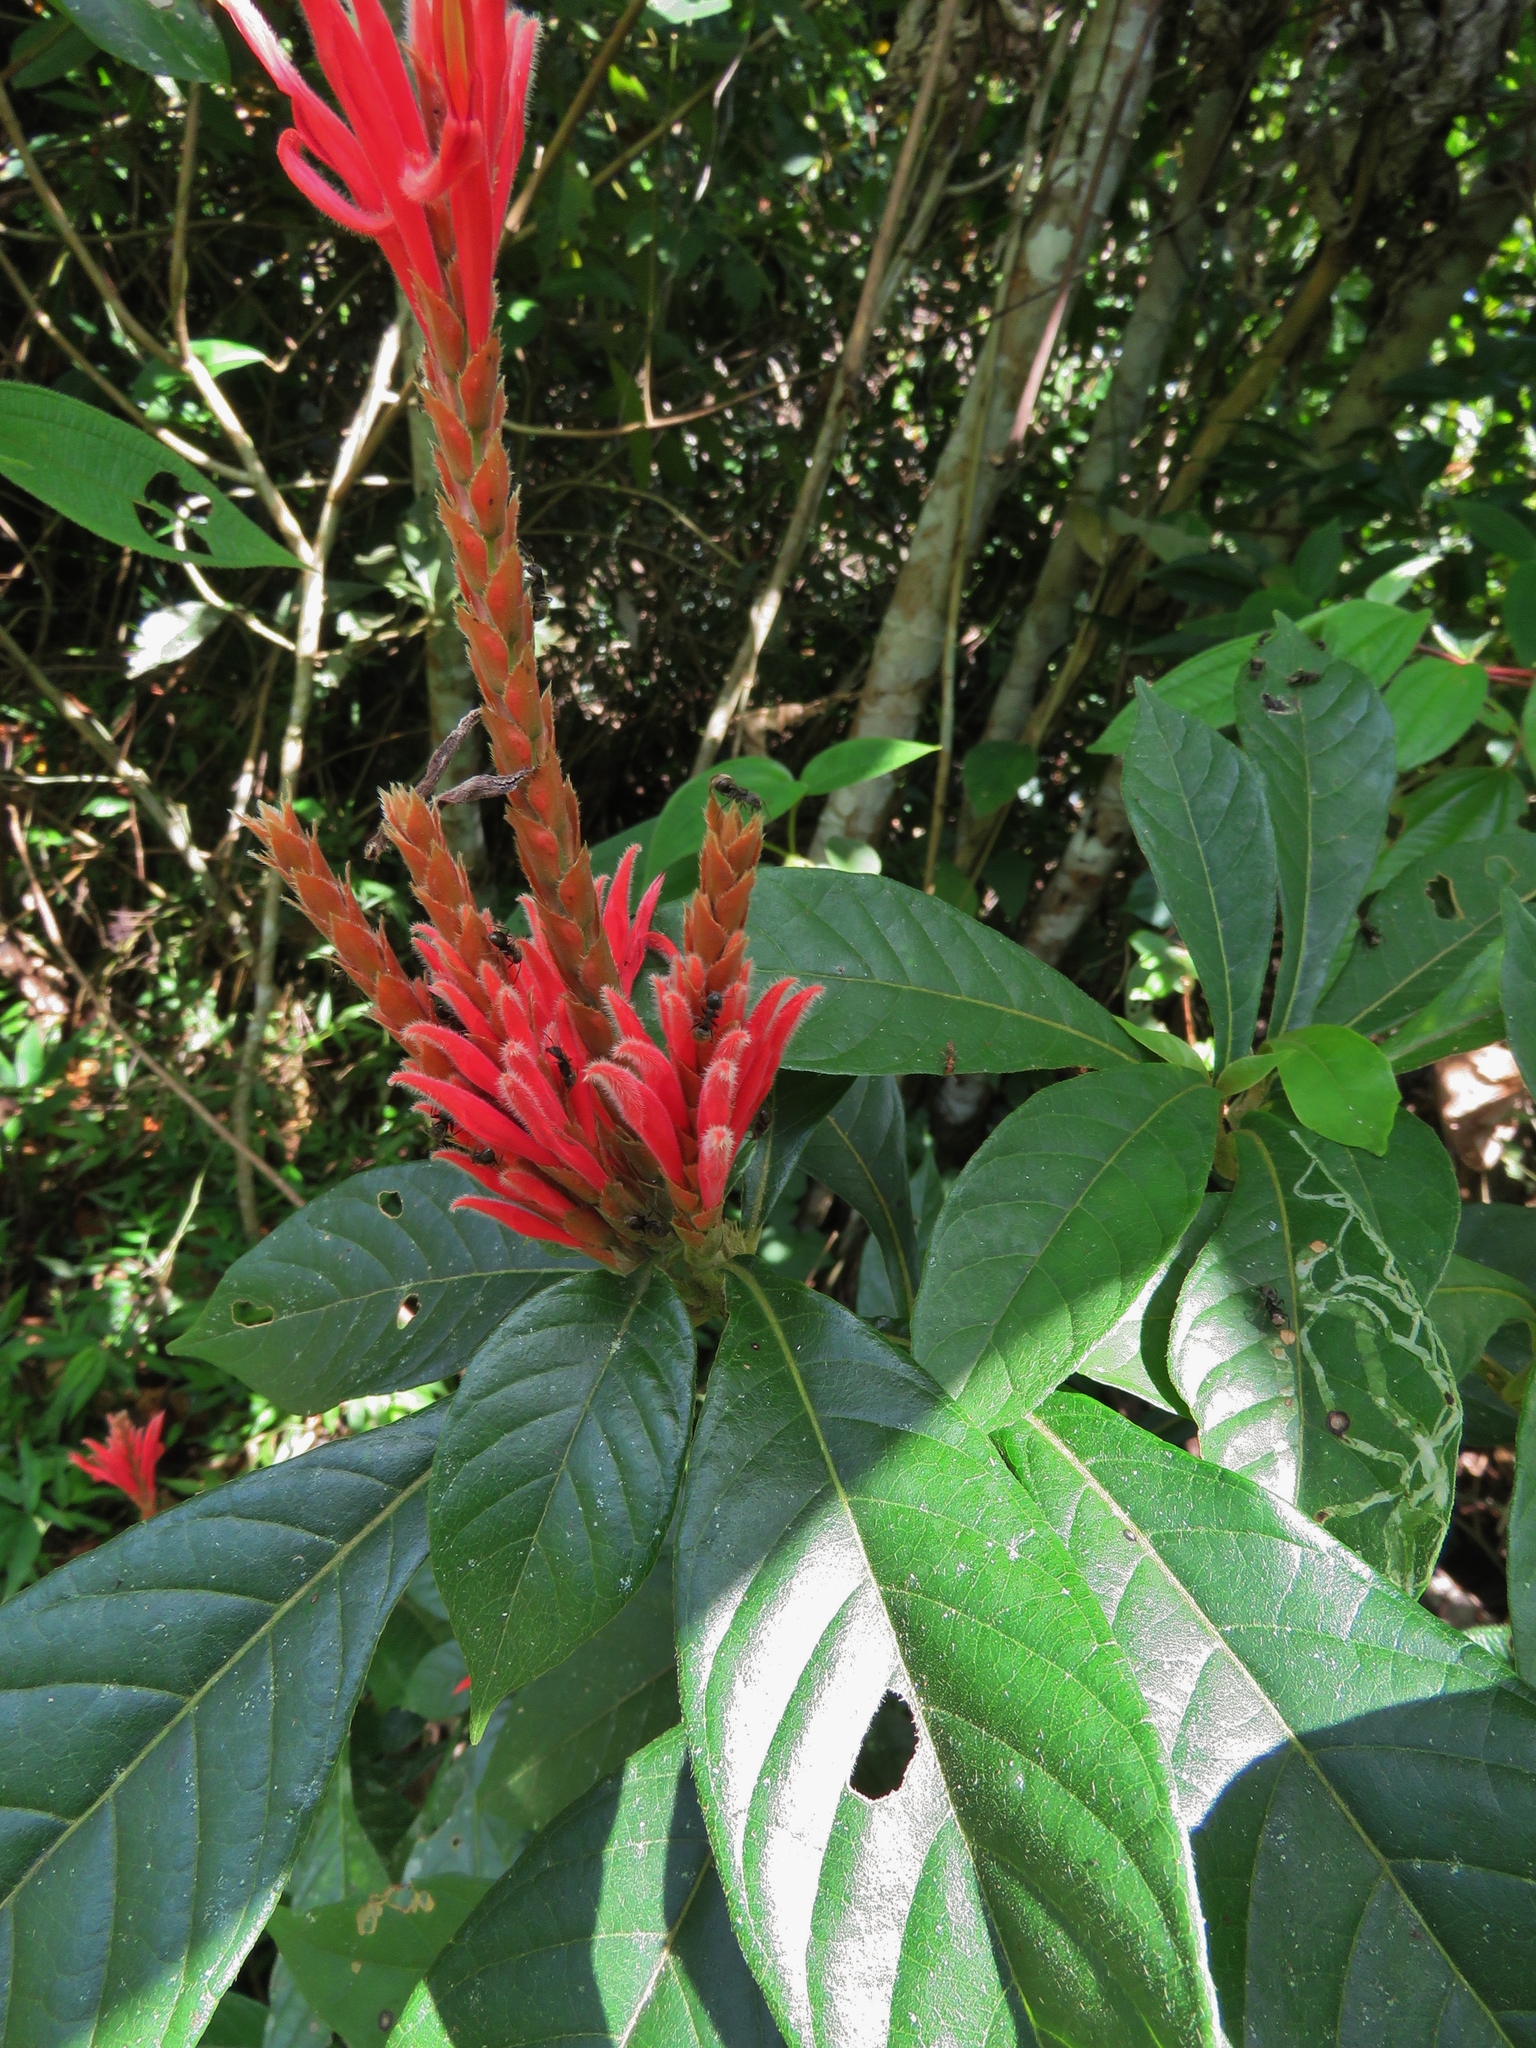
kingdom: Plantae
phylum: Tracheophyta
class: Magnoliopsida
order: Lamiales
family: Acanthaceae
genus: Aphelandra
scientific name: Aphelandra scabra
